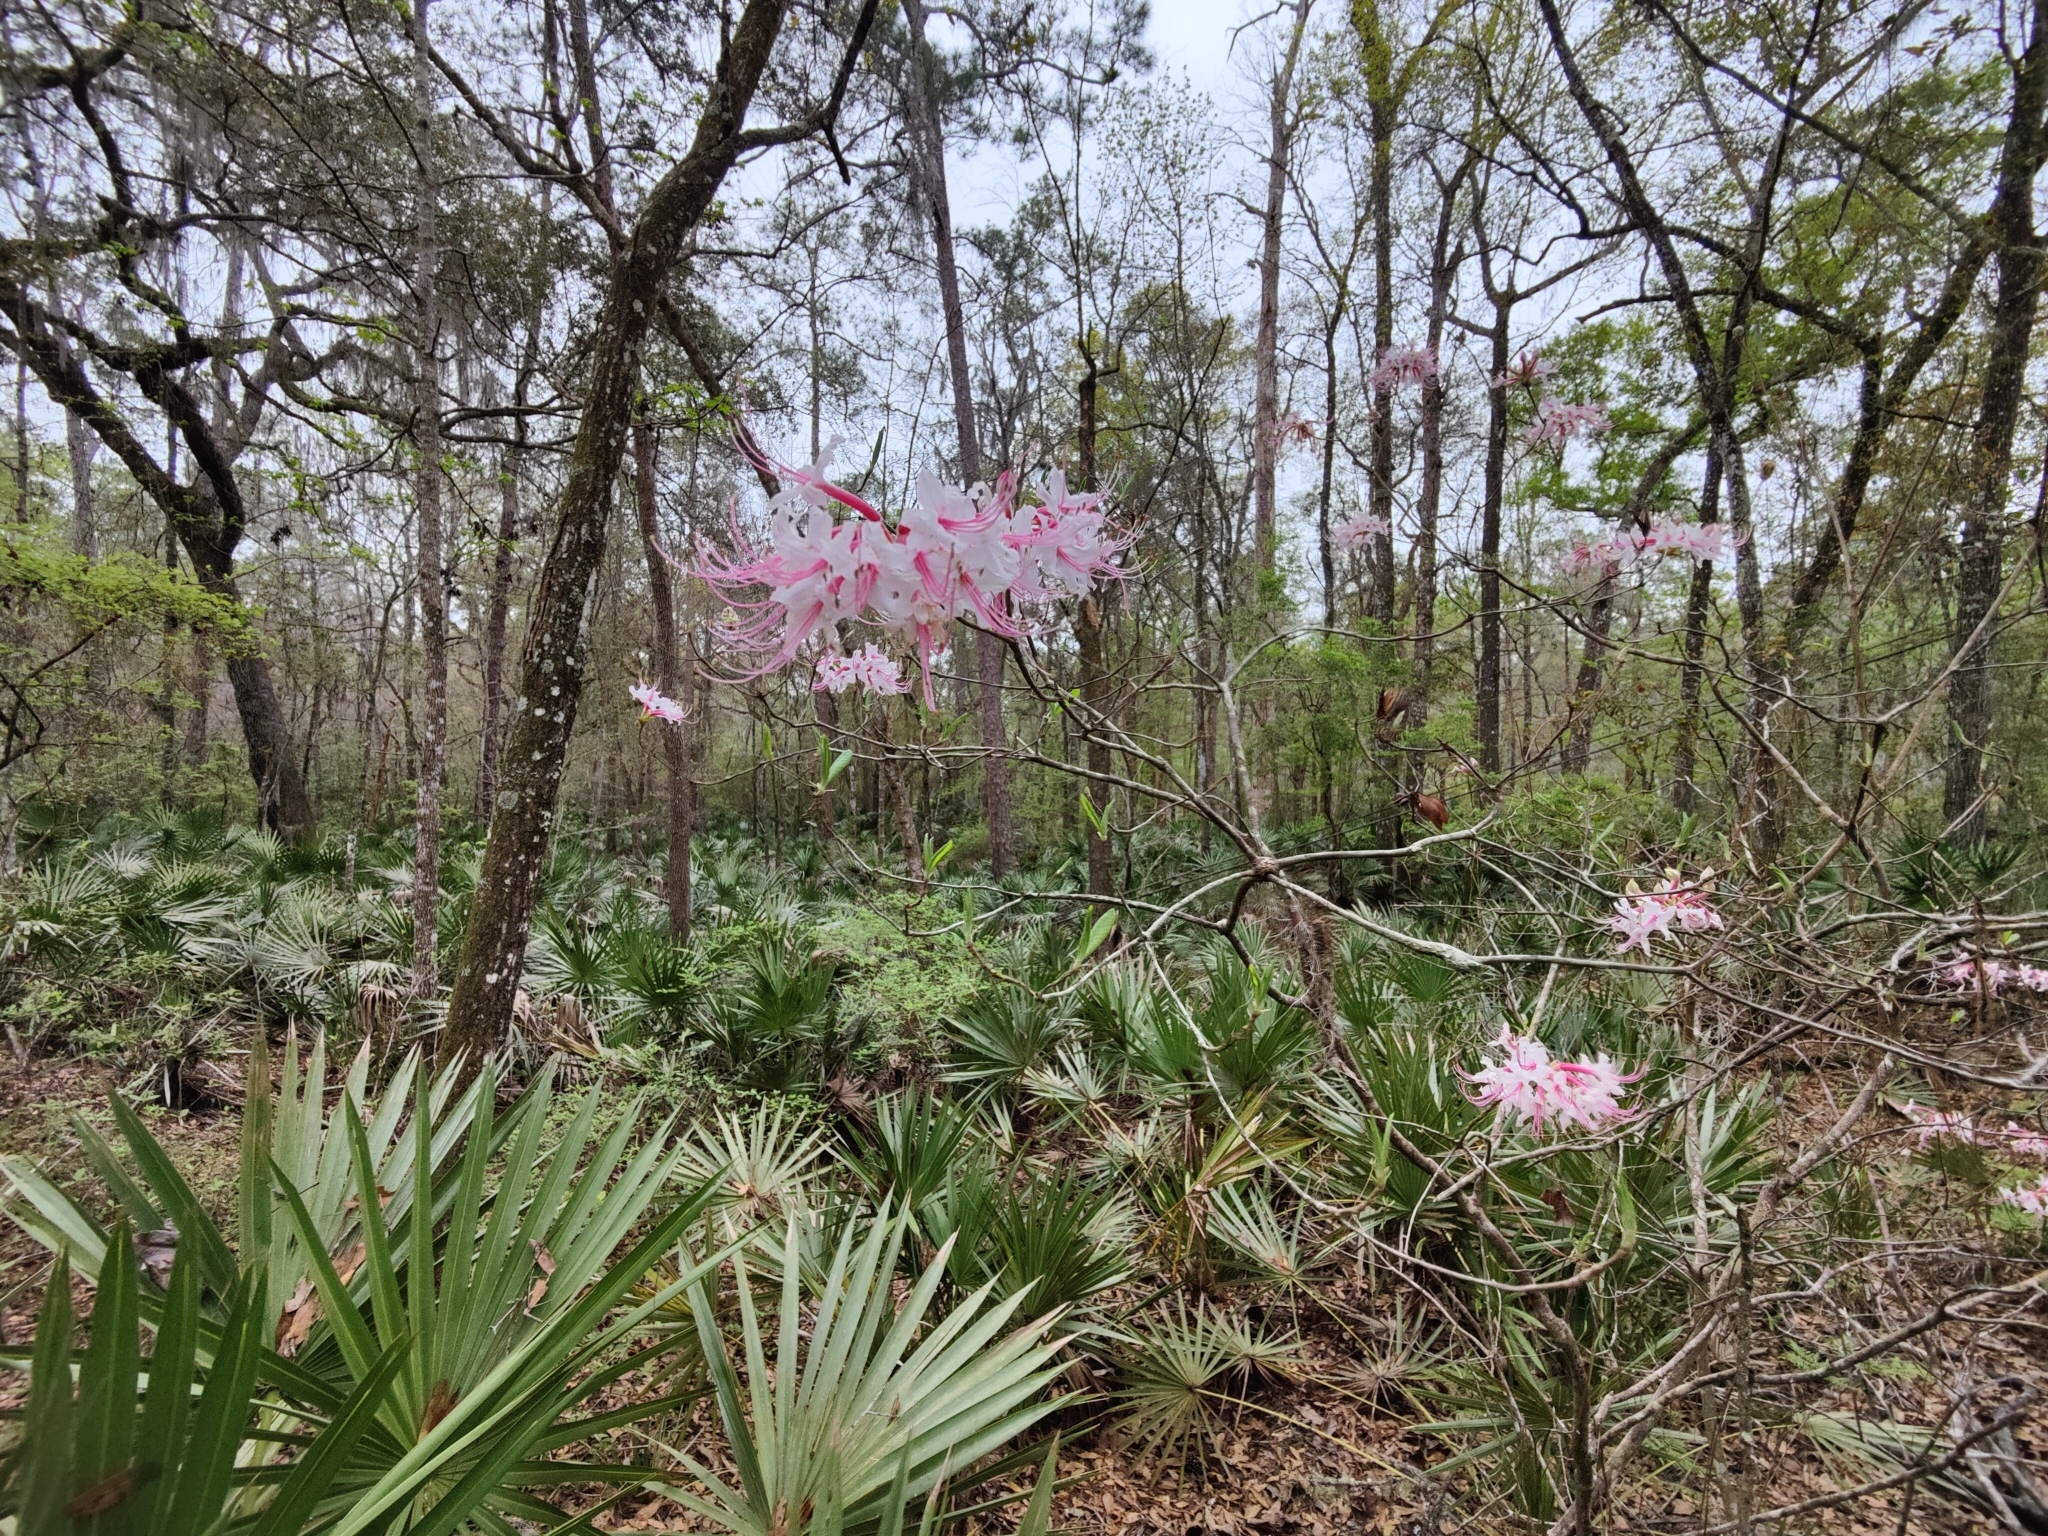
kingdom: Plantae
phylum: Tracheophyta
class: Magnoliopsida
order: Ericales
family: Ericaceae
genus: Rhododendron
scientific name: Rhododendron canescens
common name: Mountain azalea
